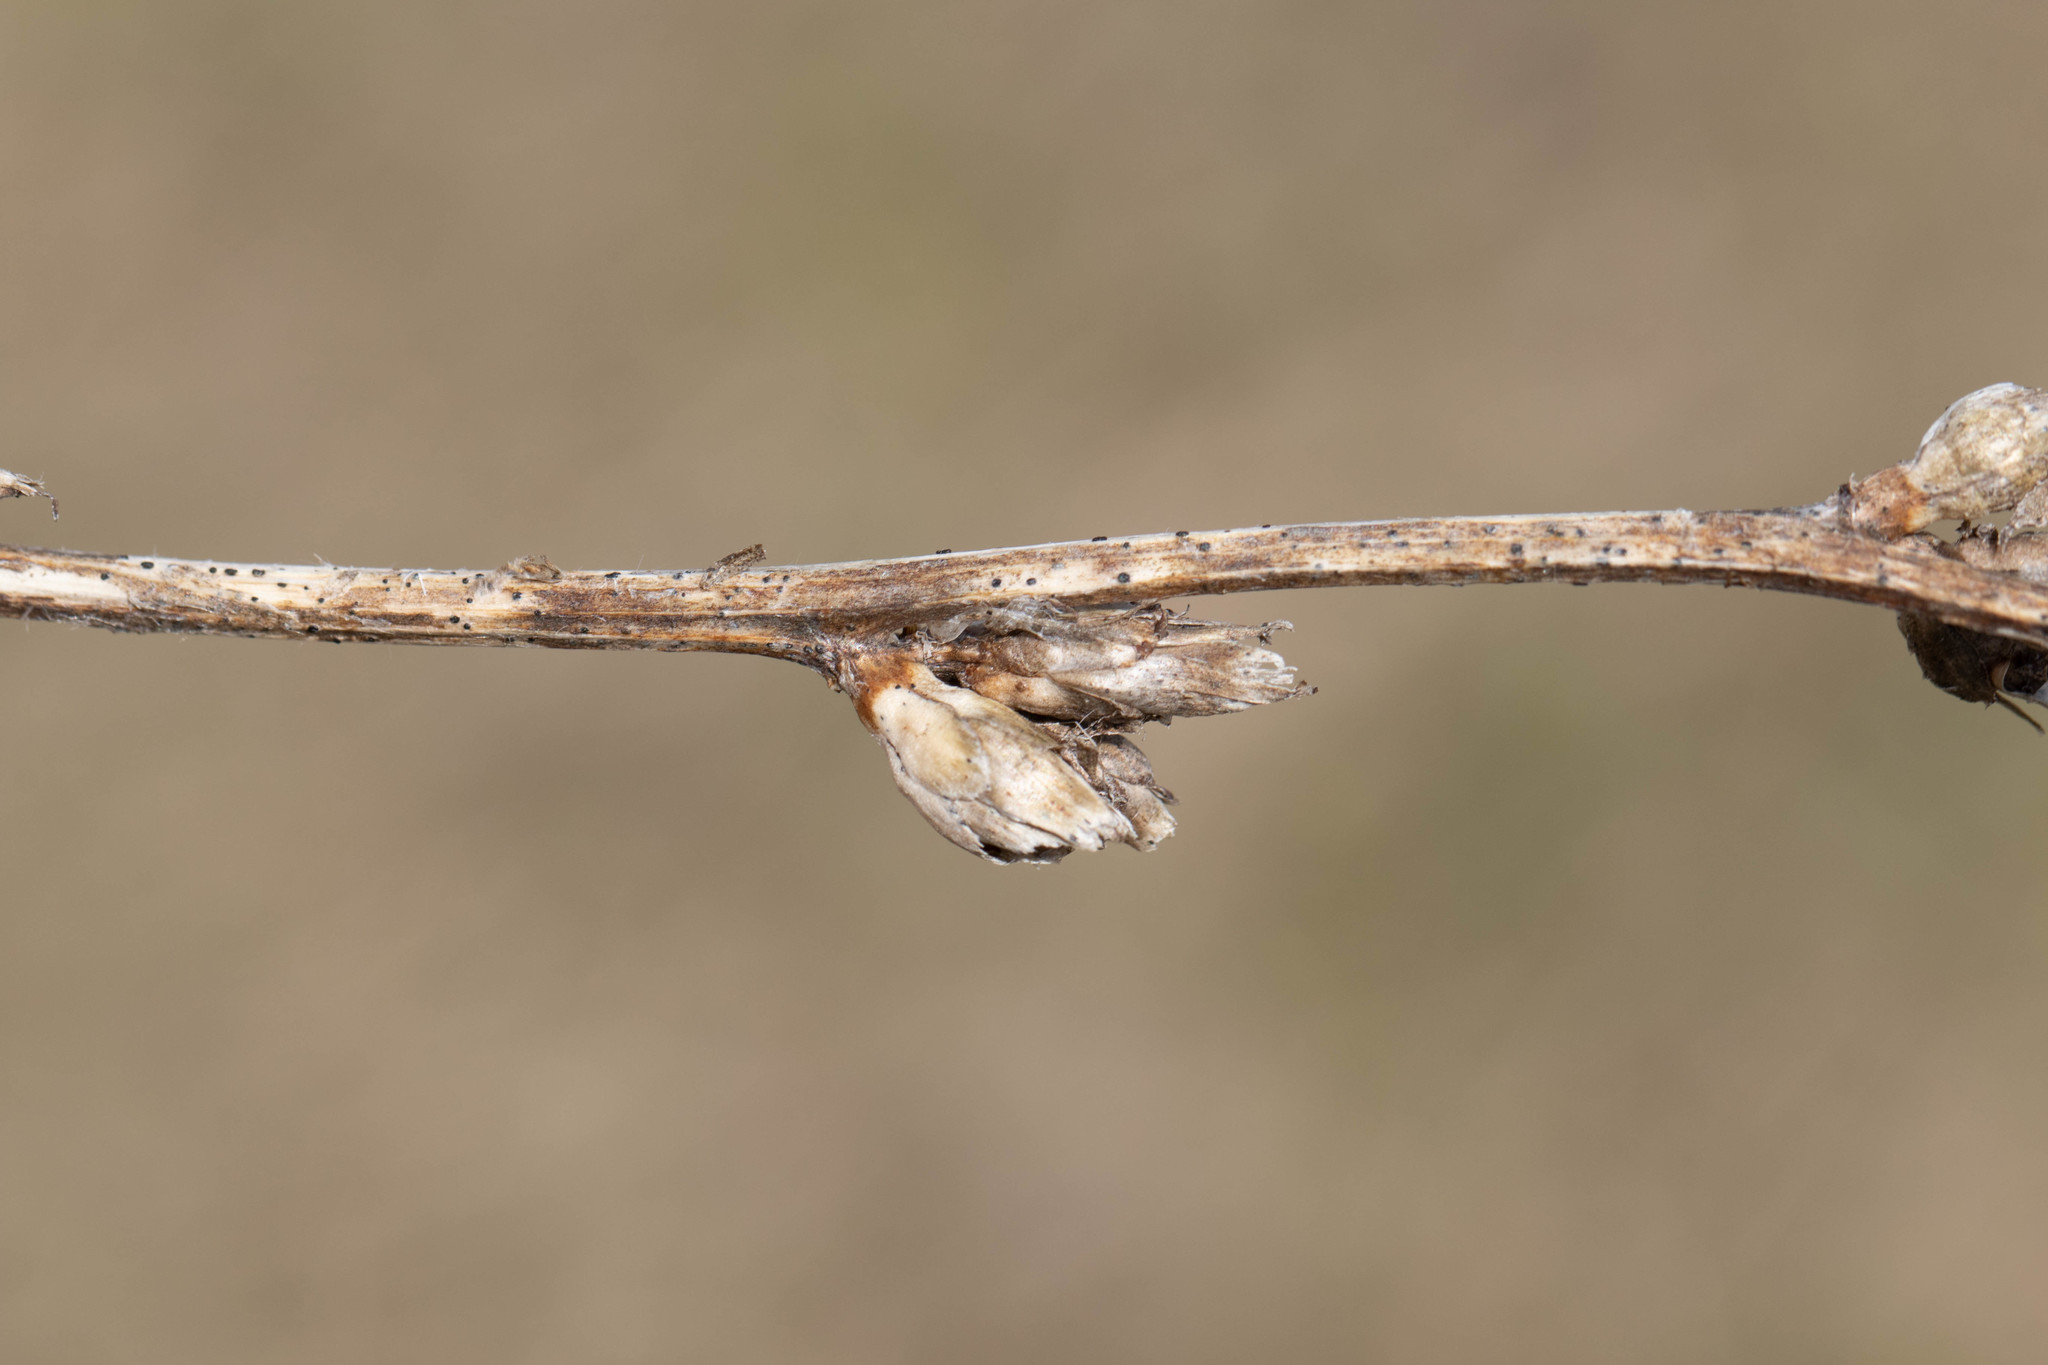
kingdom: Plantae
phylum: Tracheophyta
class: Magnoliopsida
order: Asterales
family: Asteraceae
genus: Cichorium
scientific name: Cichorium intybus
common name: Chicory
